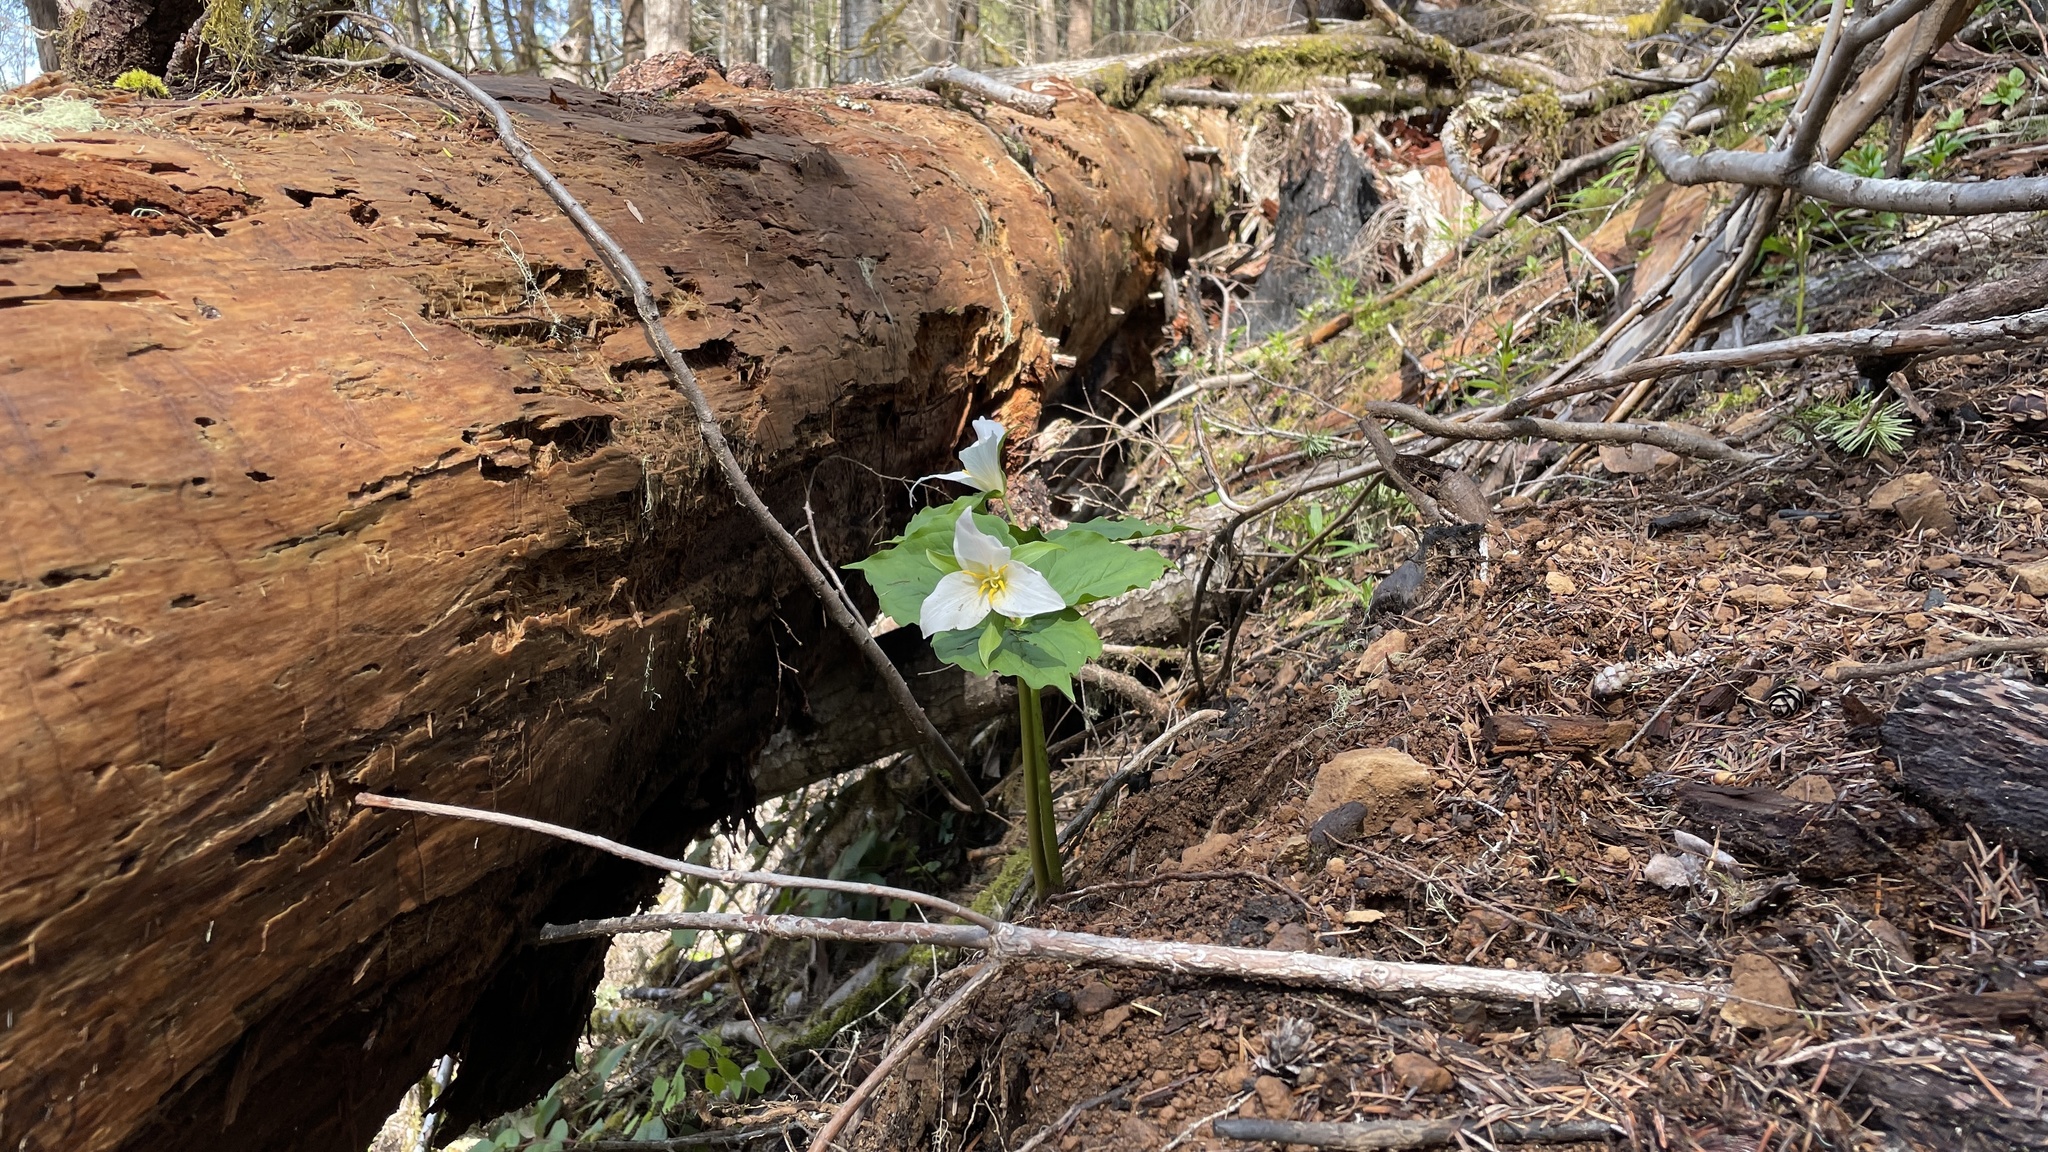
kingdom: Plantae
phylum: Tracheophyta
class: Liliopsida
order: Liliales
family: Melanthiaceae
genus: Trillium
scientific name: Trillium ovatum
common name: Pacific trillium
